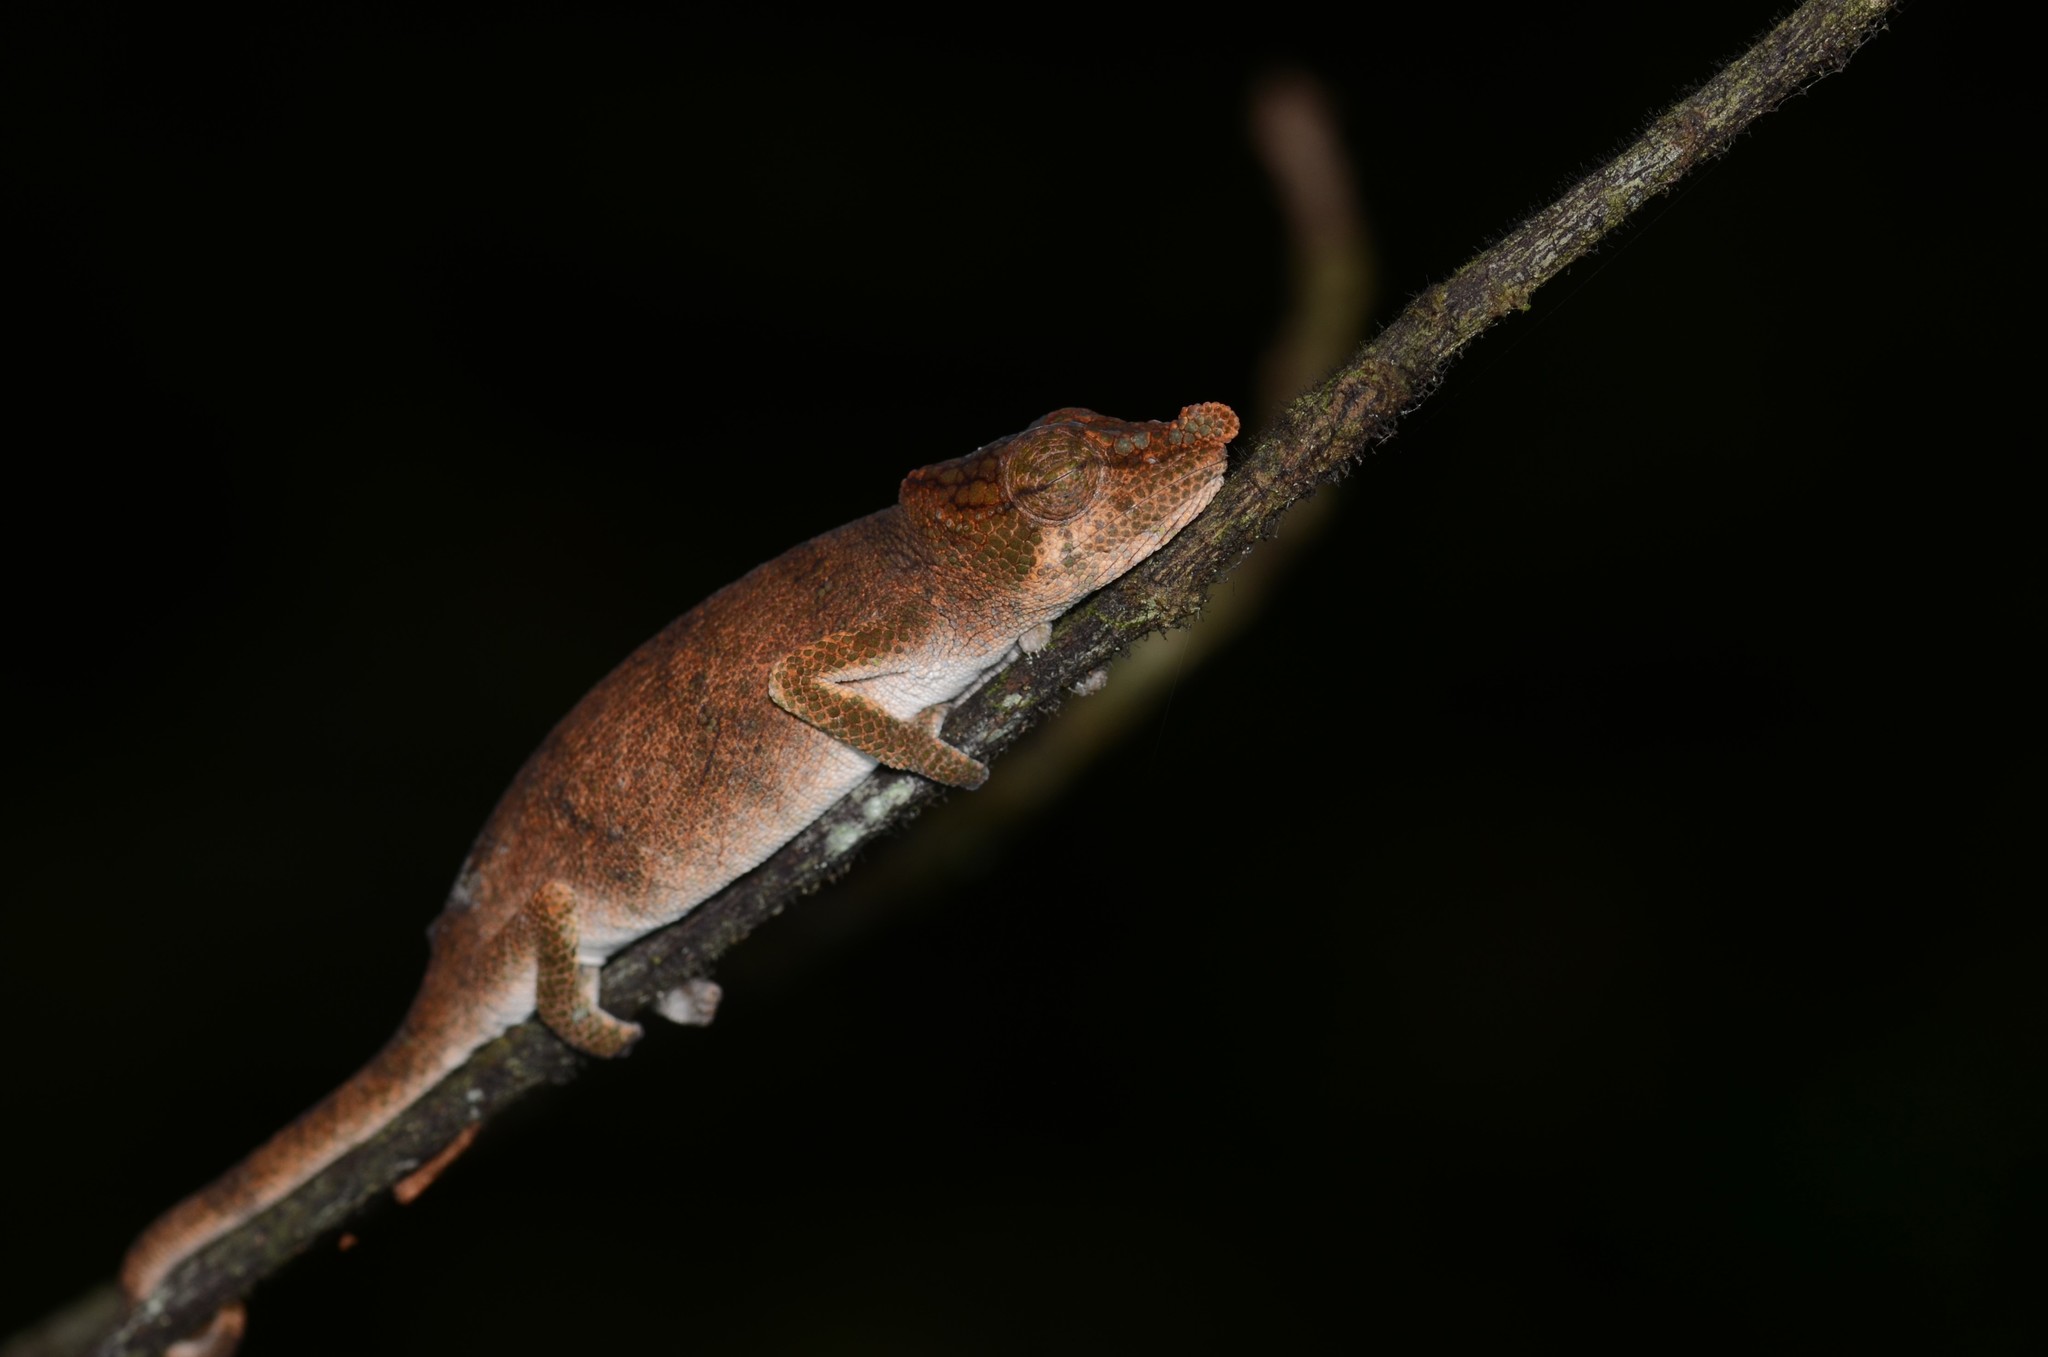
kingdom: Animalia
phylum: Chordata
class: Squamata
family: Chamaeleonidae
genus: Calumma
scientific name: Calumma emelinae
